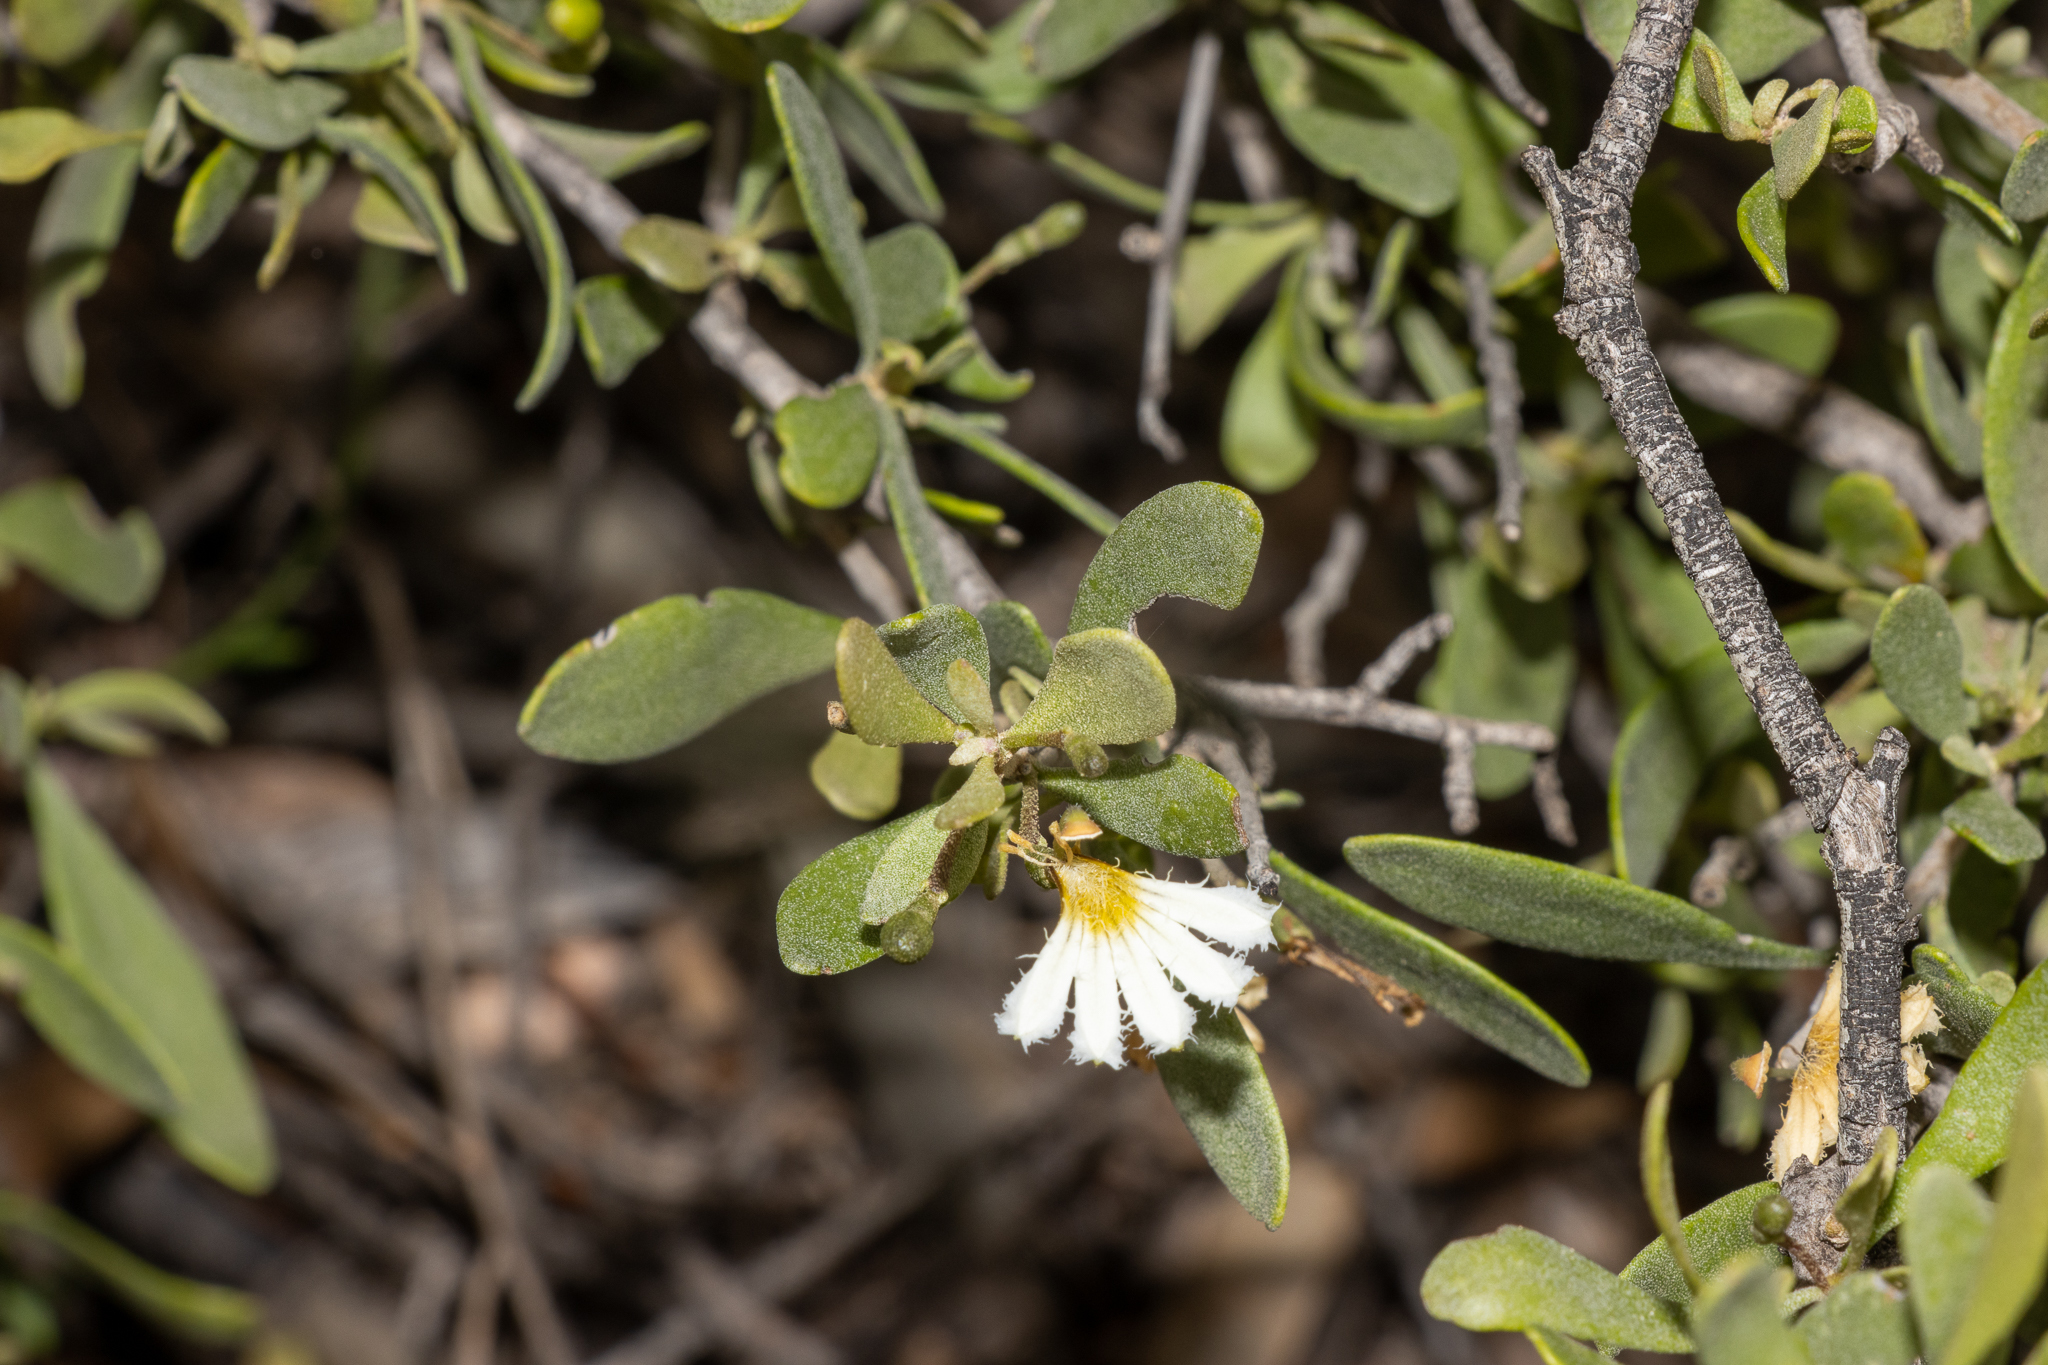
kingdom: Plantae
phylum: Tracheophyta
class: Magnoliopsida
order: Asterales
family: Goodeniaceae
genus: Scaevola
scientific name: Scaevola bursariifolia
